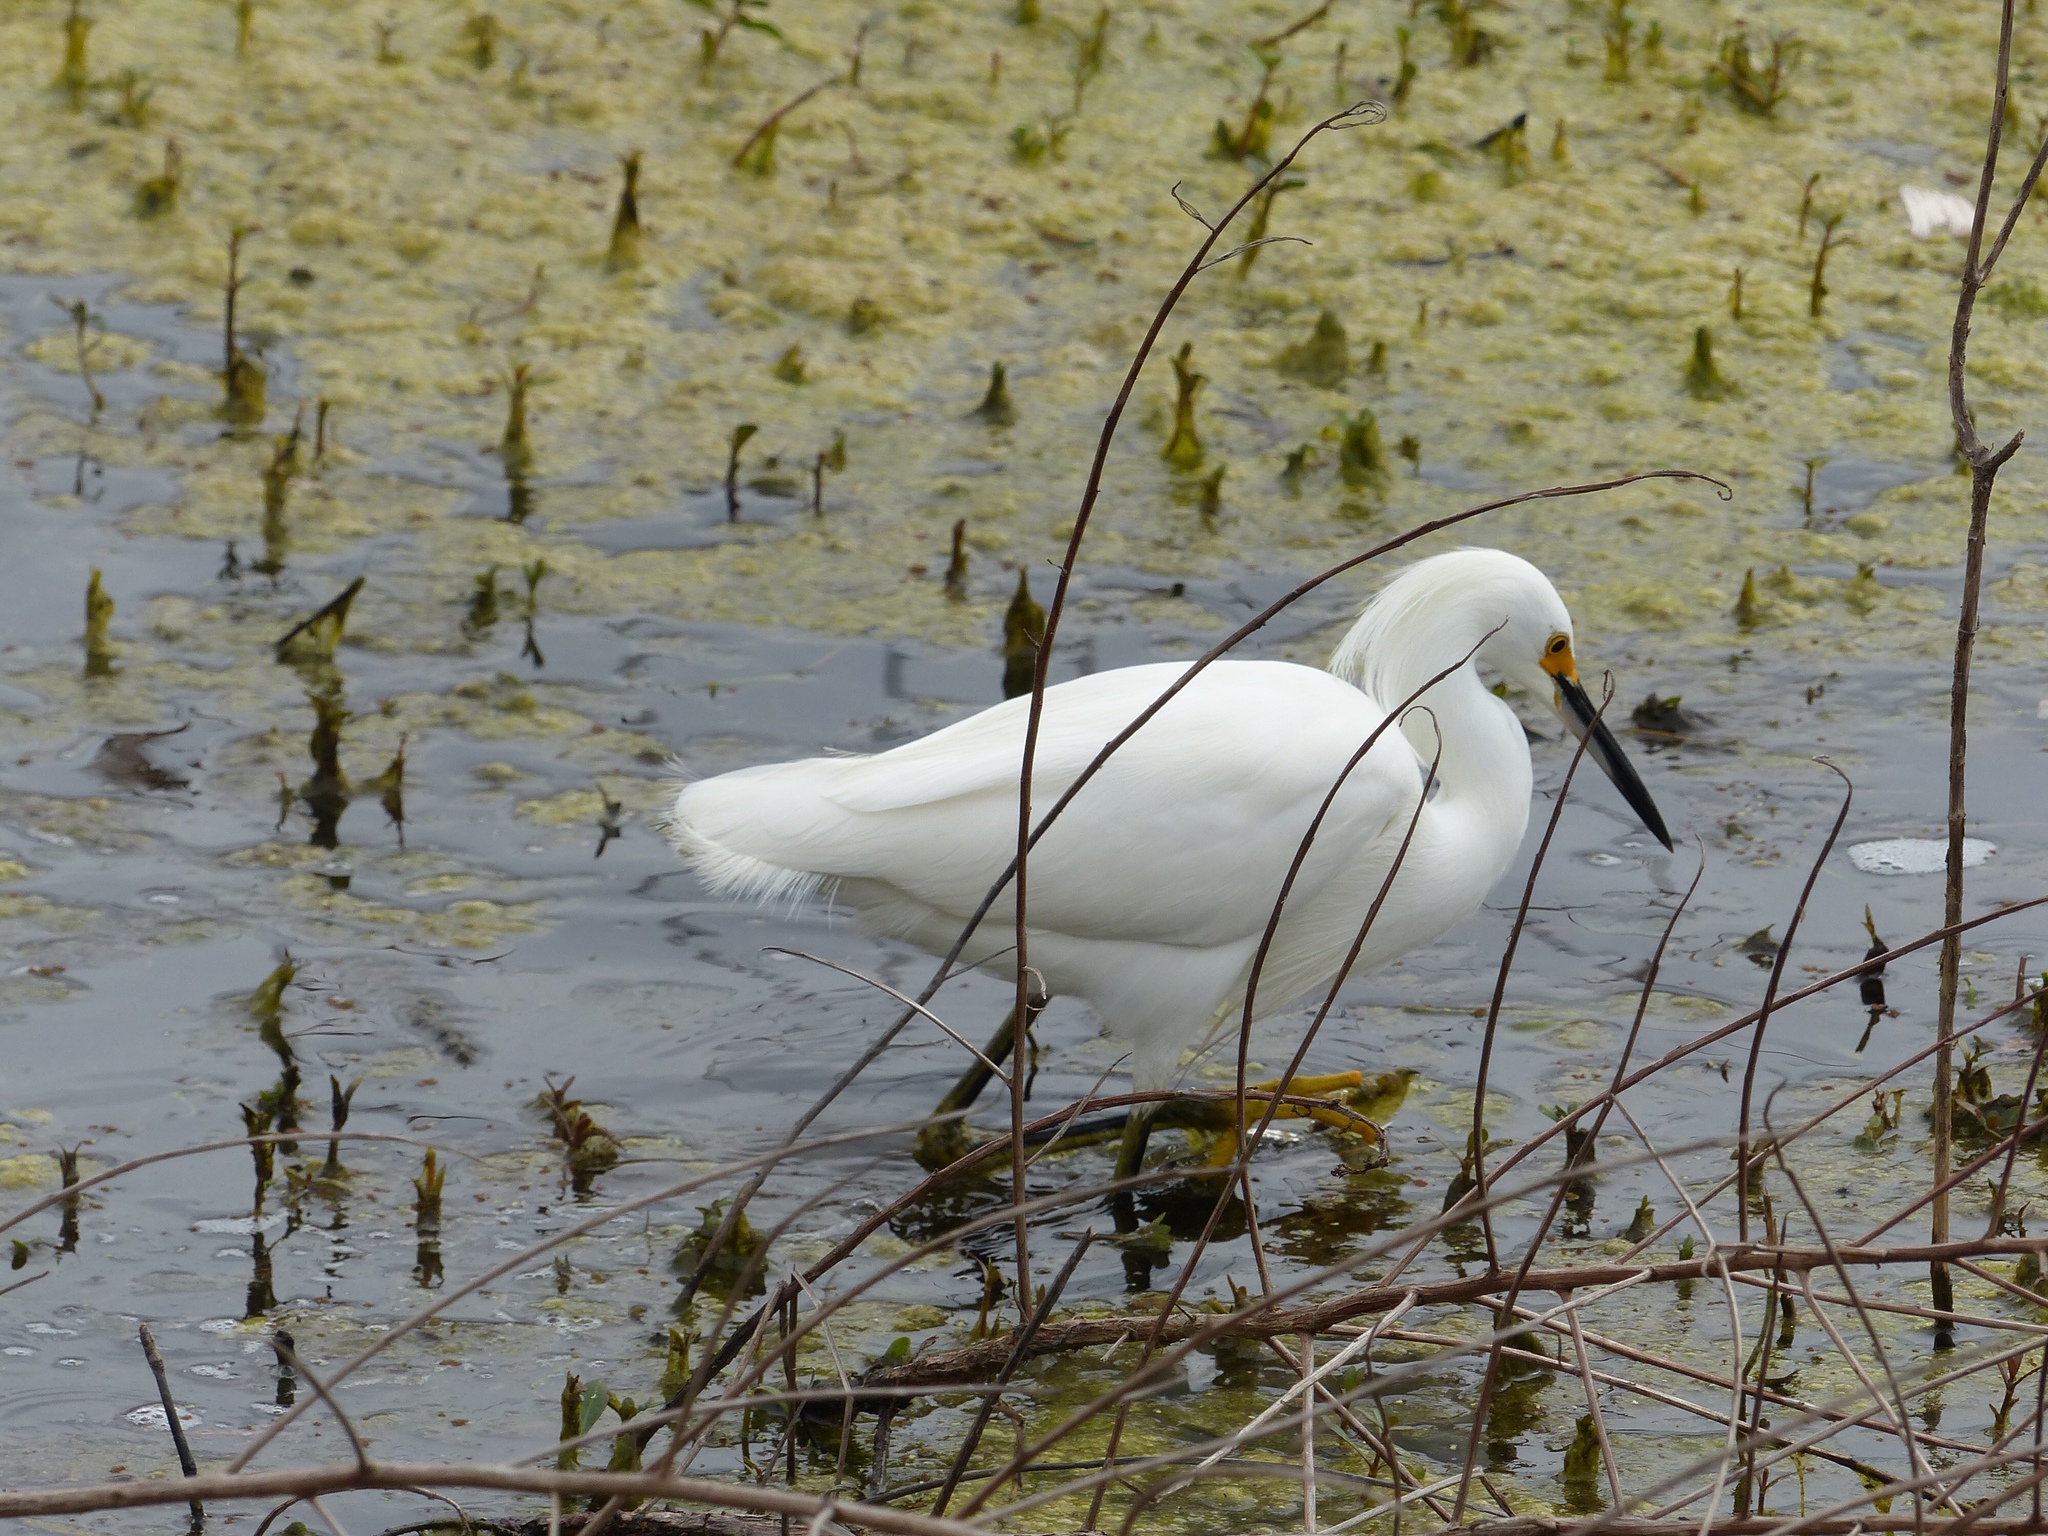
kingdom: Animalia
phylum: Chordata
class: Aves
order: Pelecaniformes
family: Ardeidae
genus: Egretta
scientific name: Egretta thula
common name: Snowy egret
